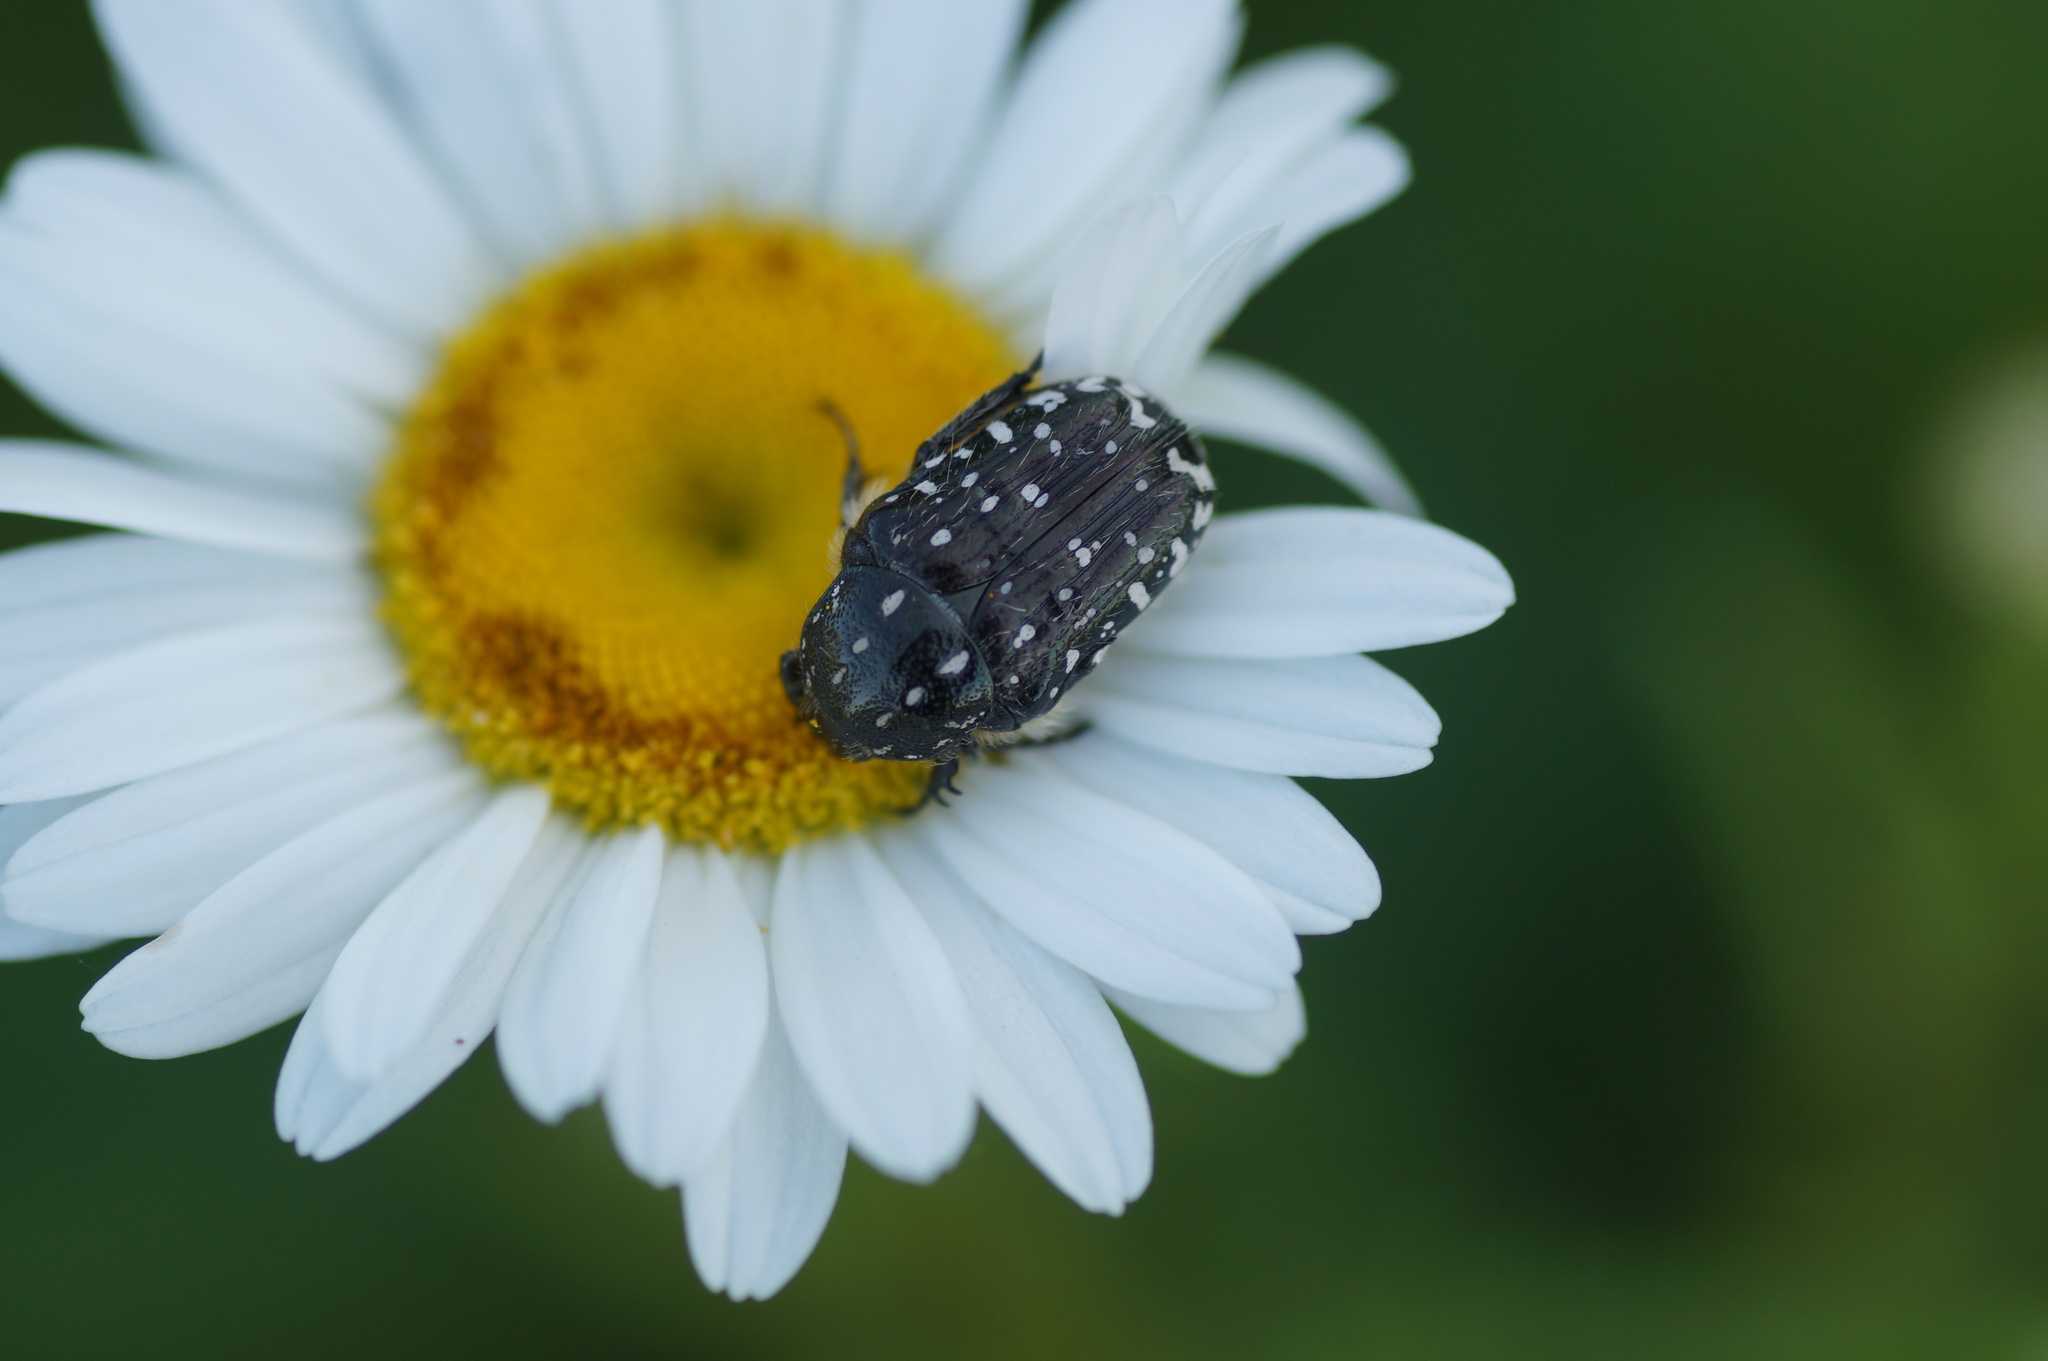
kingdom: Animalia
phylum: Arthropoda
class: Insecta
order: Coleoptera
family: Scarabaeidae
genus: Oxythyrea
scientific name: Oxythyrea funesta
